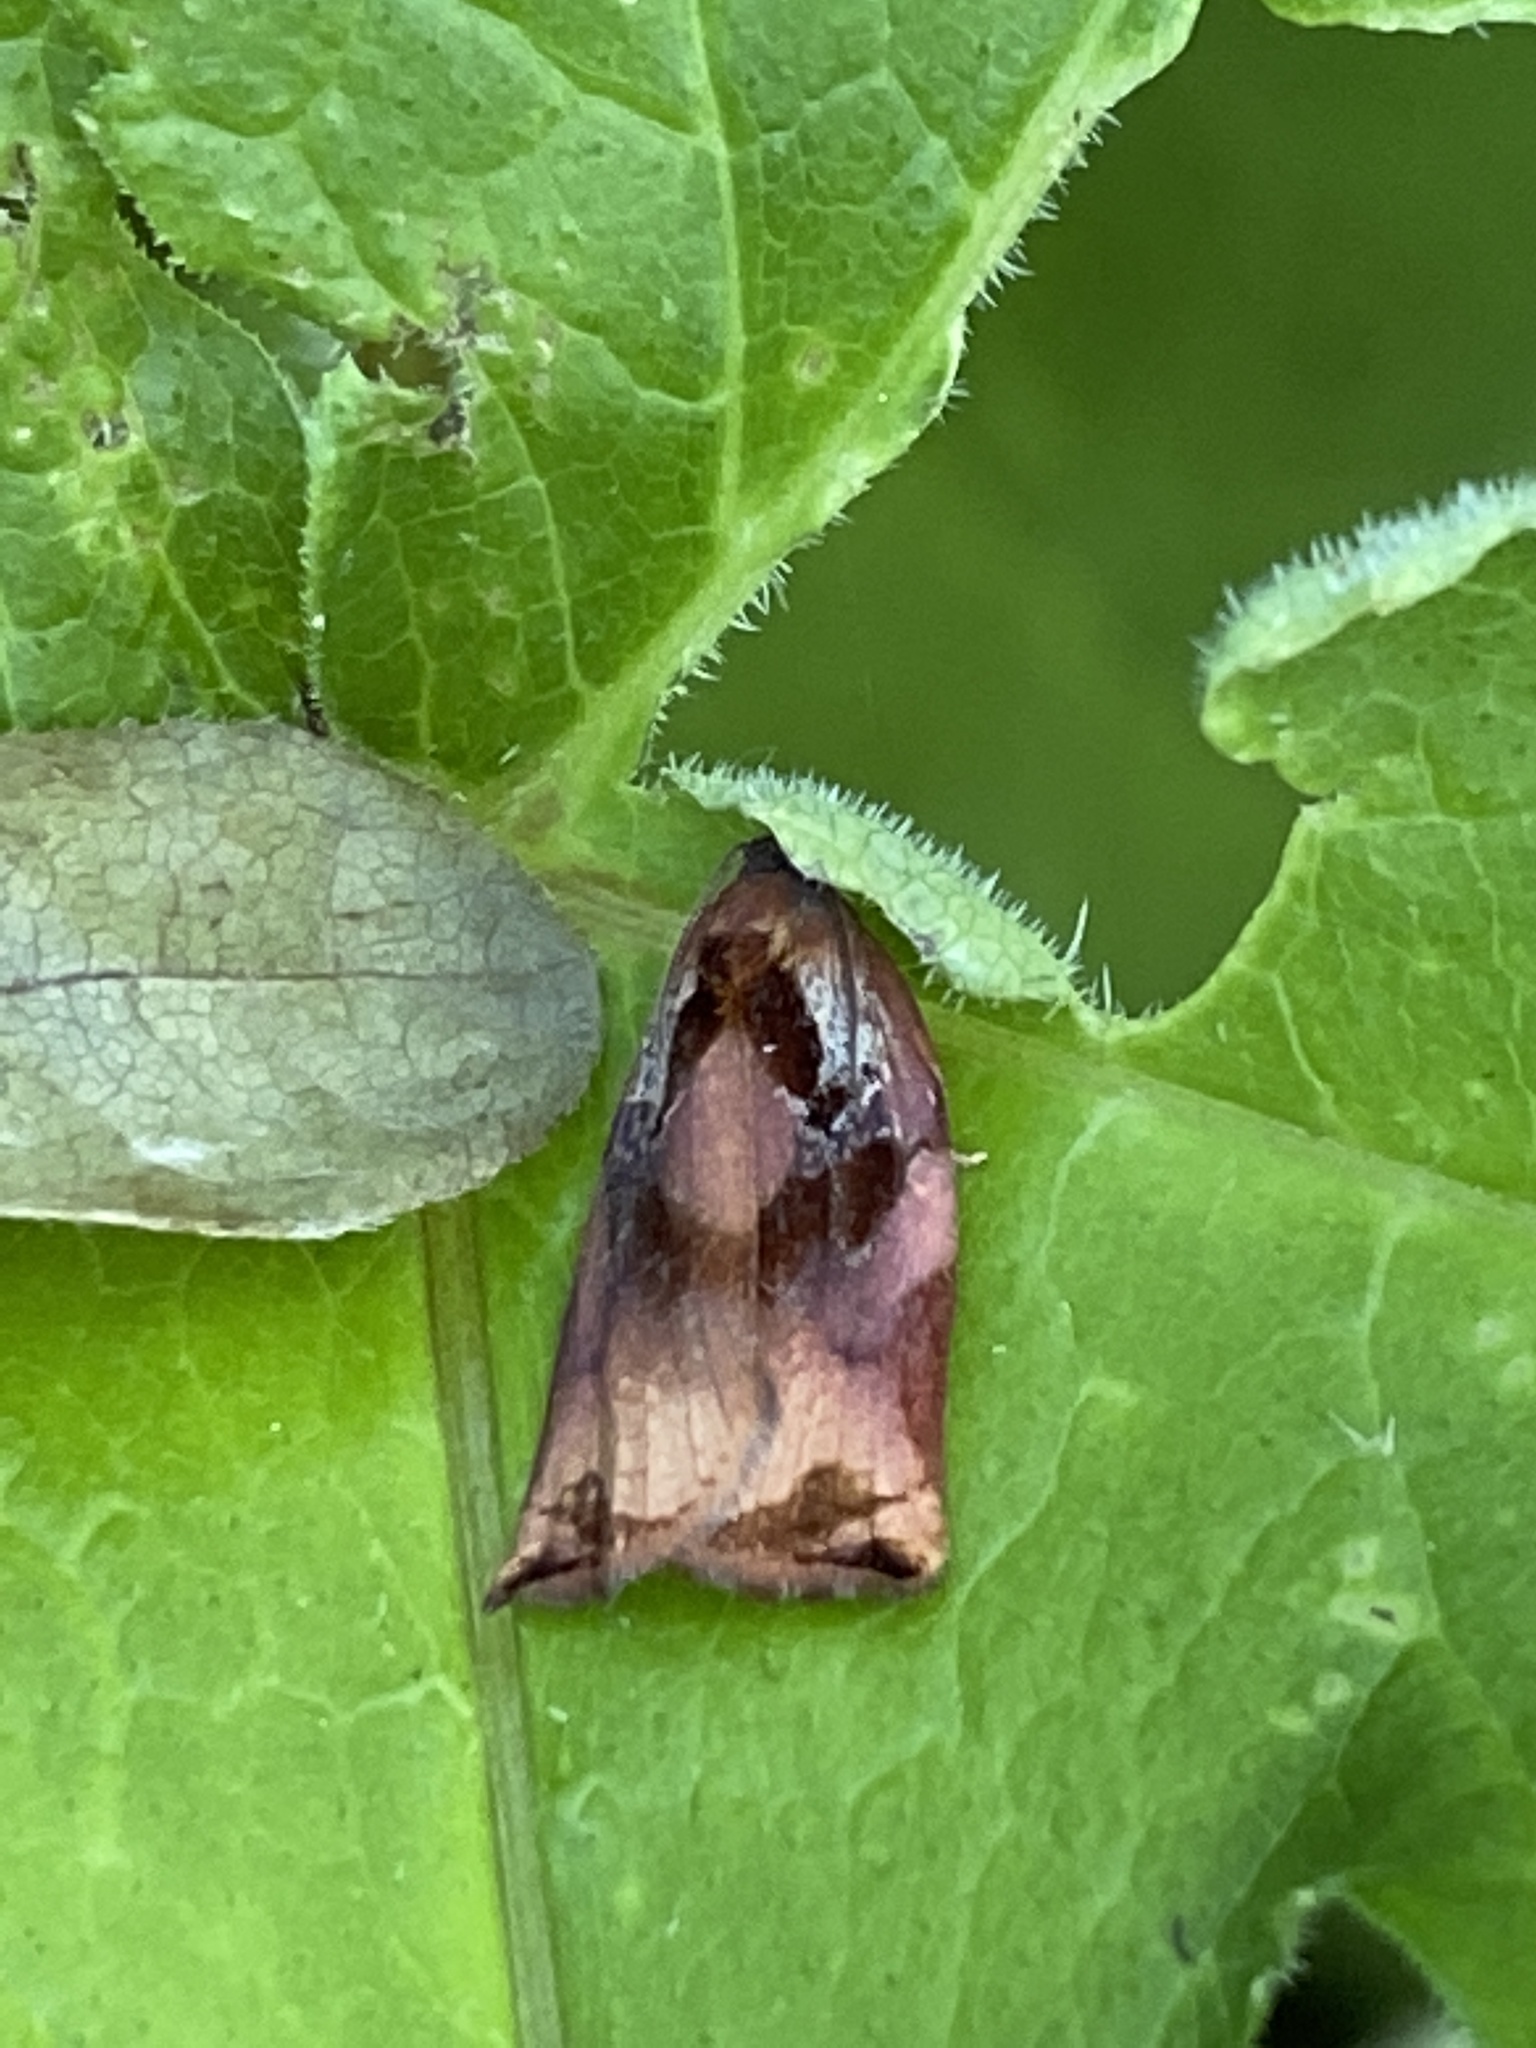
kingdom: Animalia
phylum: Arthropoda
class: Insecta
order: Lepidoptera
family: Tortricidae
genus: Archips
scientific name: Archips podana
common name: Large fruit-tree tortrix
